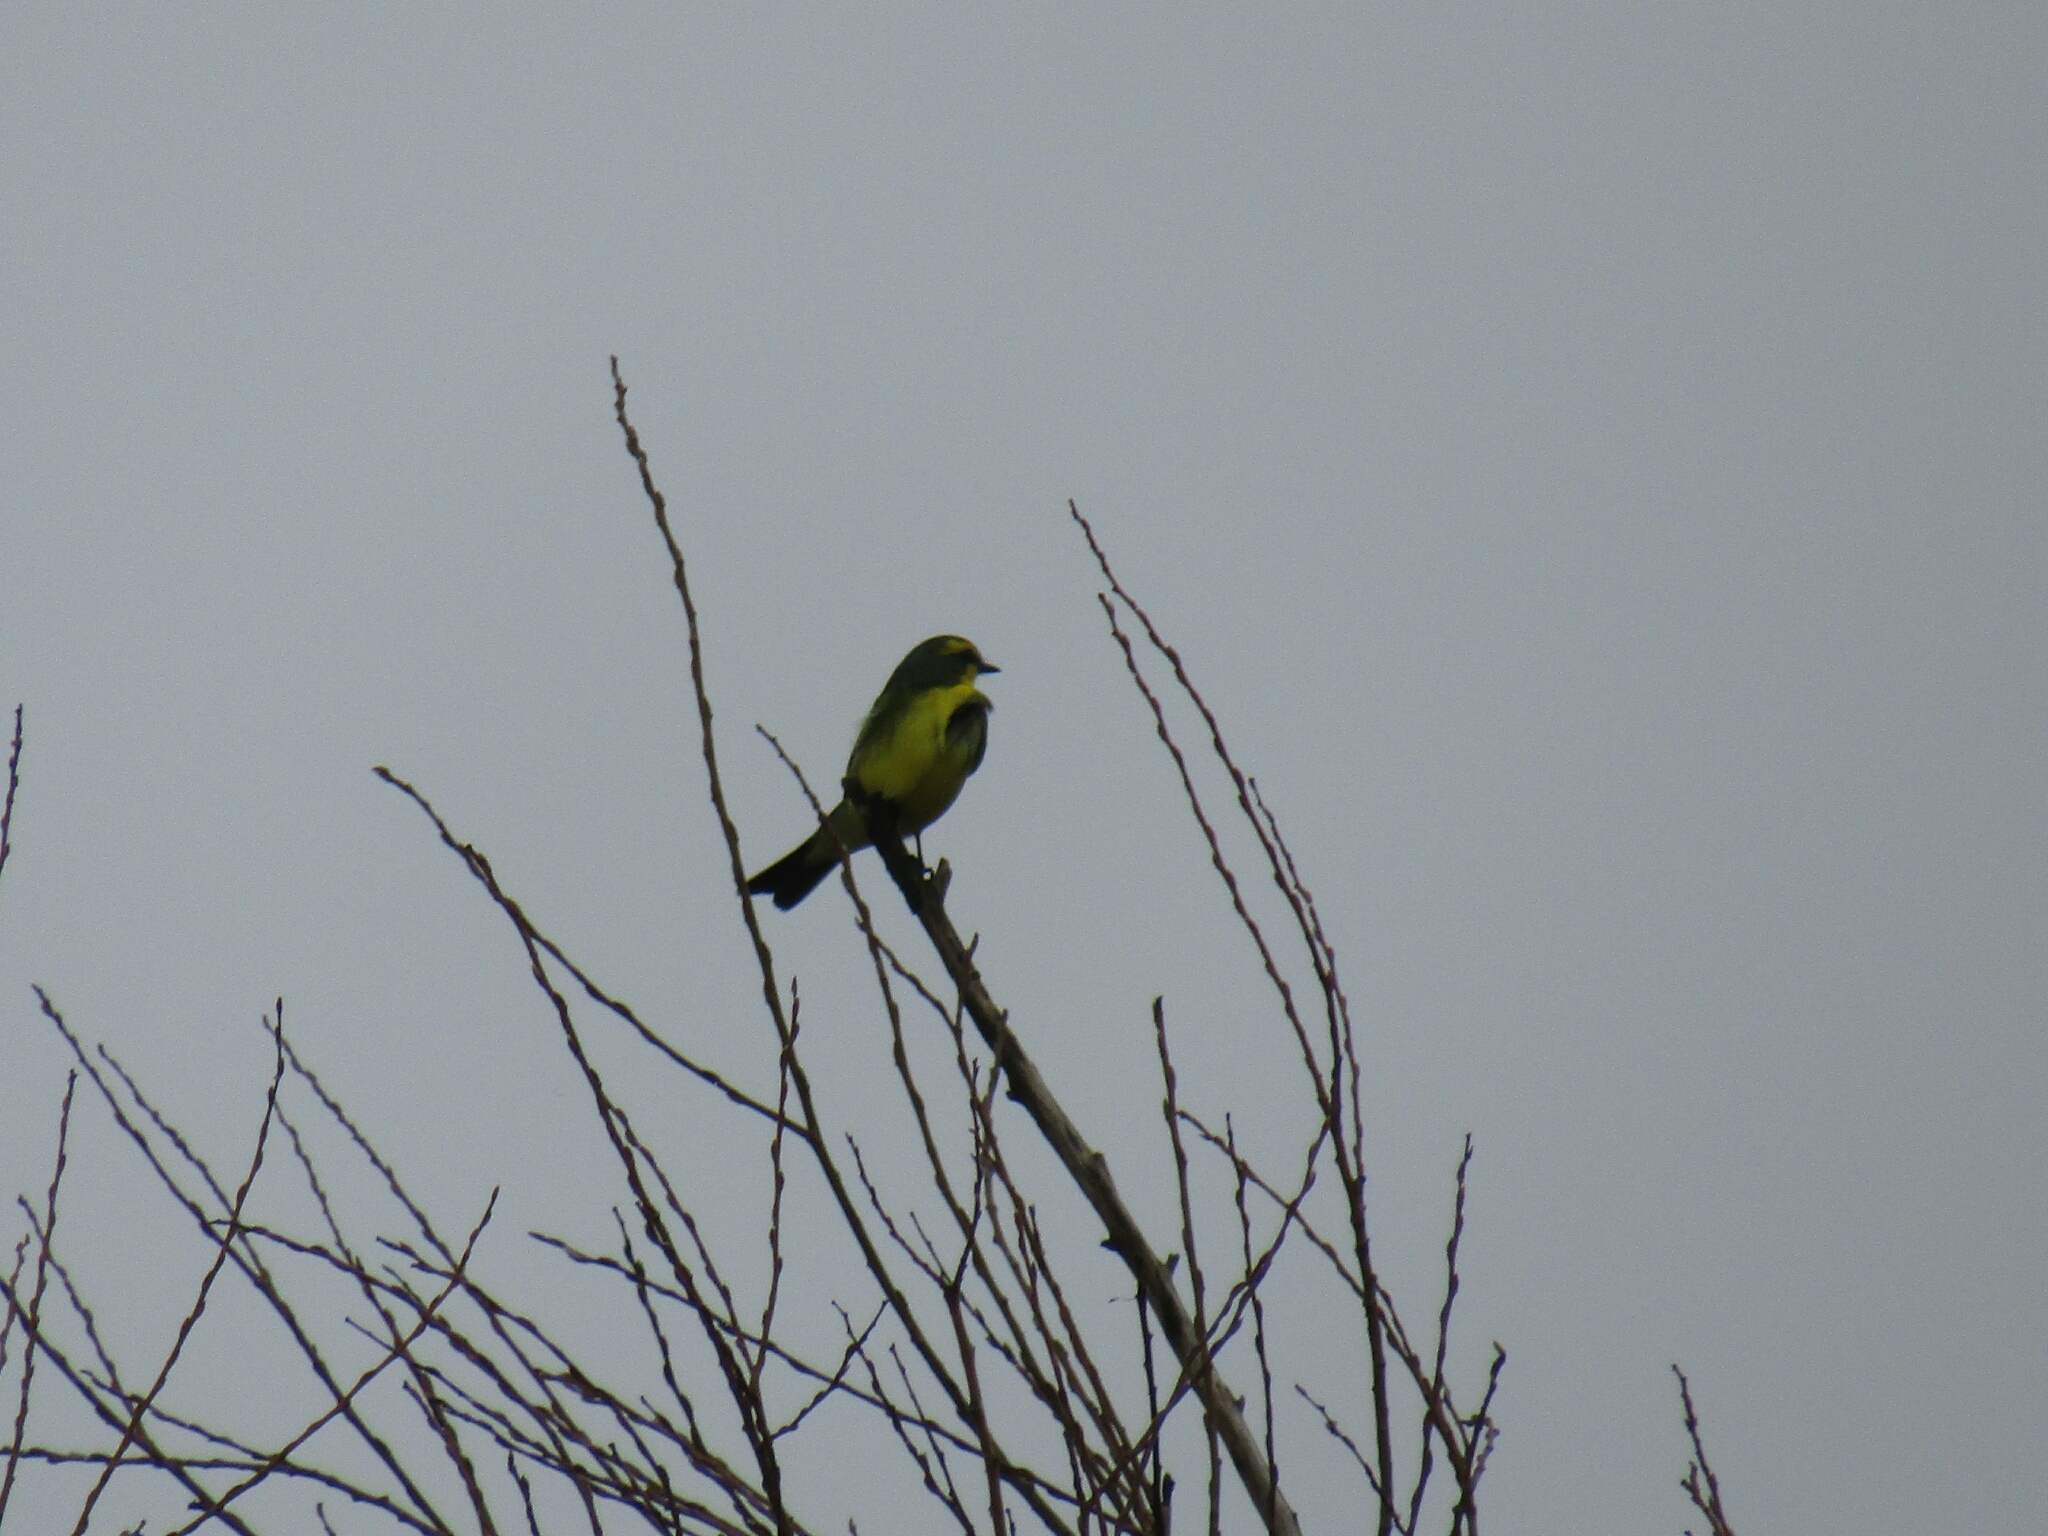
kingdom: Animalia
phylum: Chordata
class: Aves
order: Passeriformes
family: Tyrannidae
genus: Satrapa
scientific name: Satrapa icterophrys
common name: Yellow-browed tyrant
